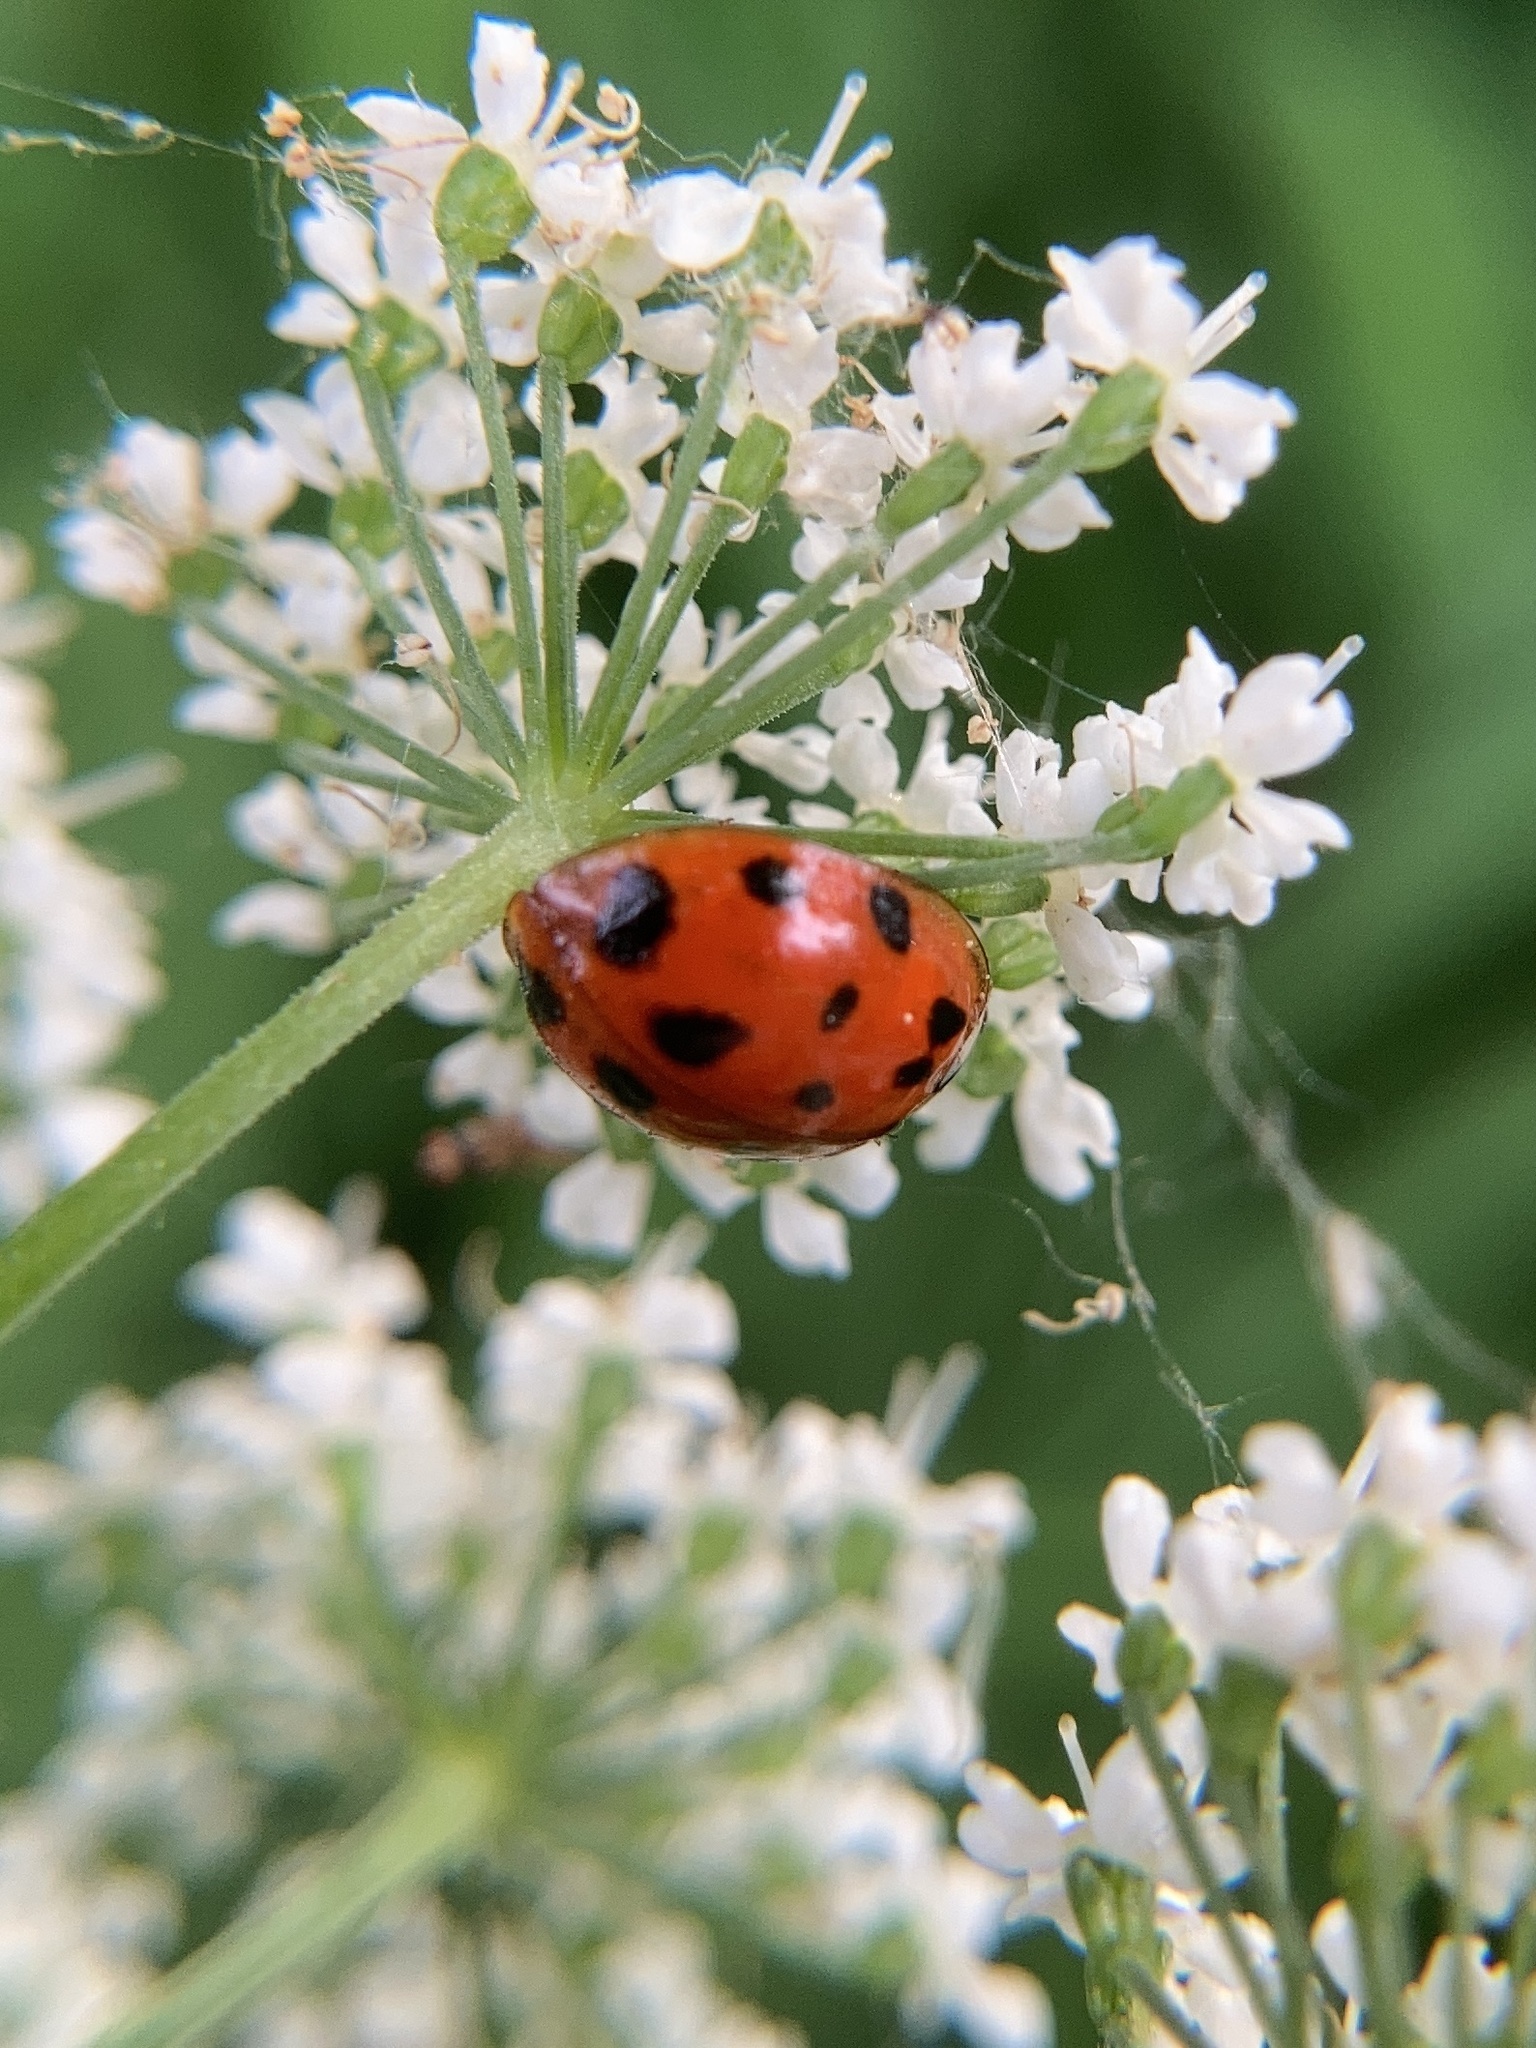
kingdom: Animalia
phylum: Arthropoda
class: Insecta
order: Coleoptera
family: Coccinellidae
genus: Harmonia
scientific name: Harmonia axyridis
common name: Harlequin ladybird
